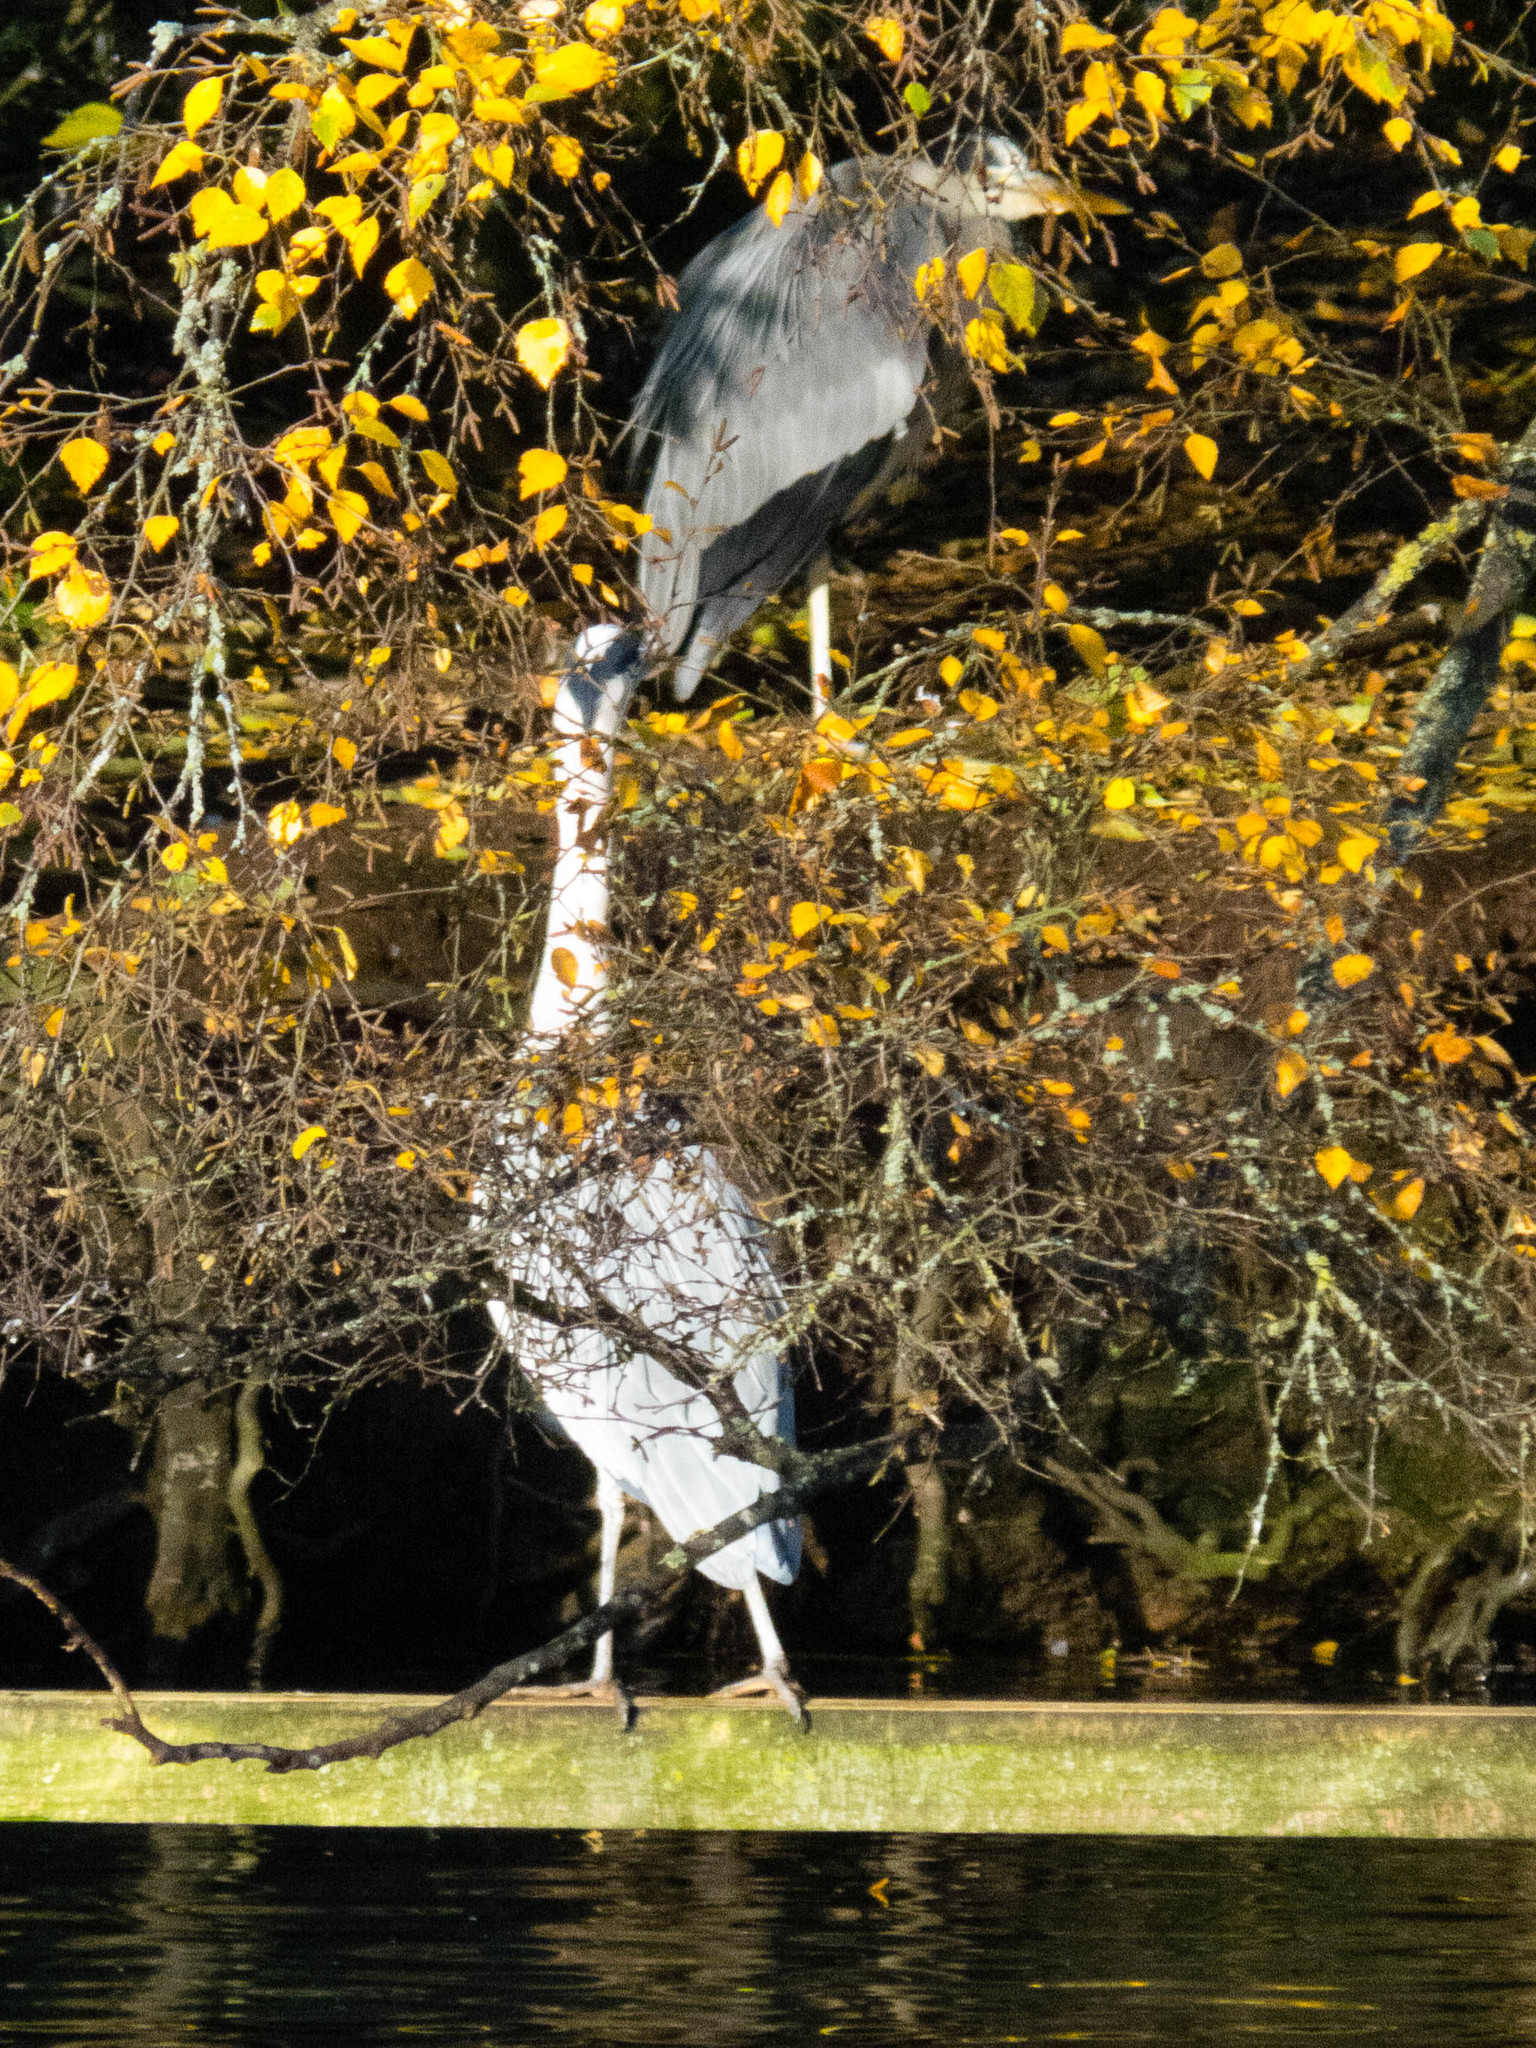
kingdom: Animalia
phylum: Chordata
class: Aves
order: Pelecaniformes
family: Ardeidae
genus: Ardea
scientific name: Ardea cinerea
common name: Grey heron
